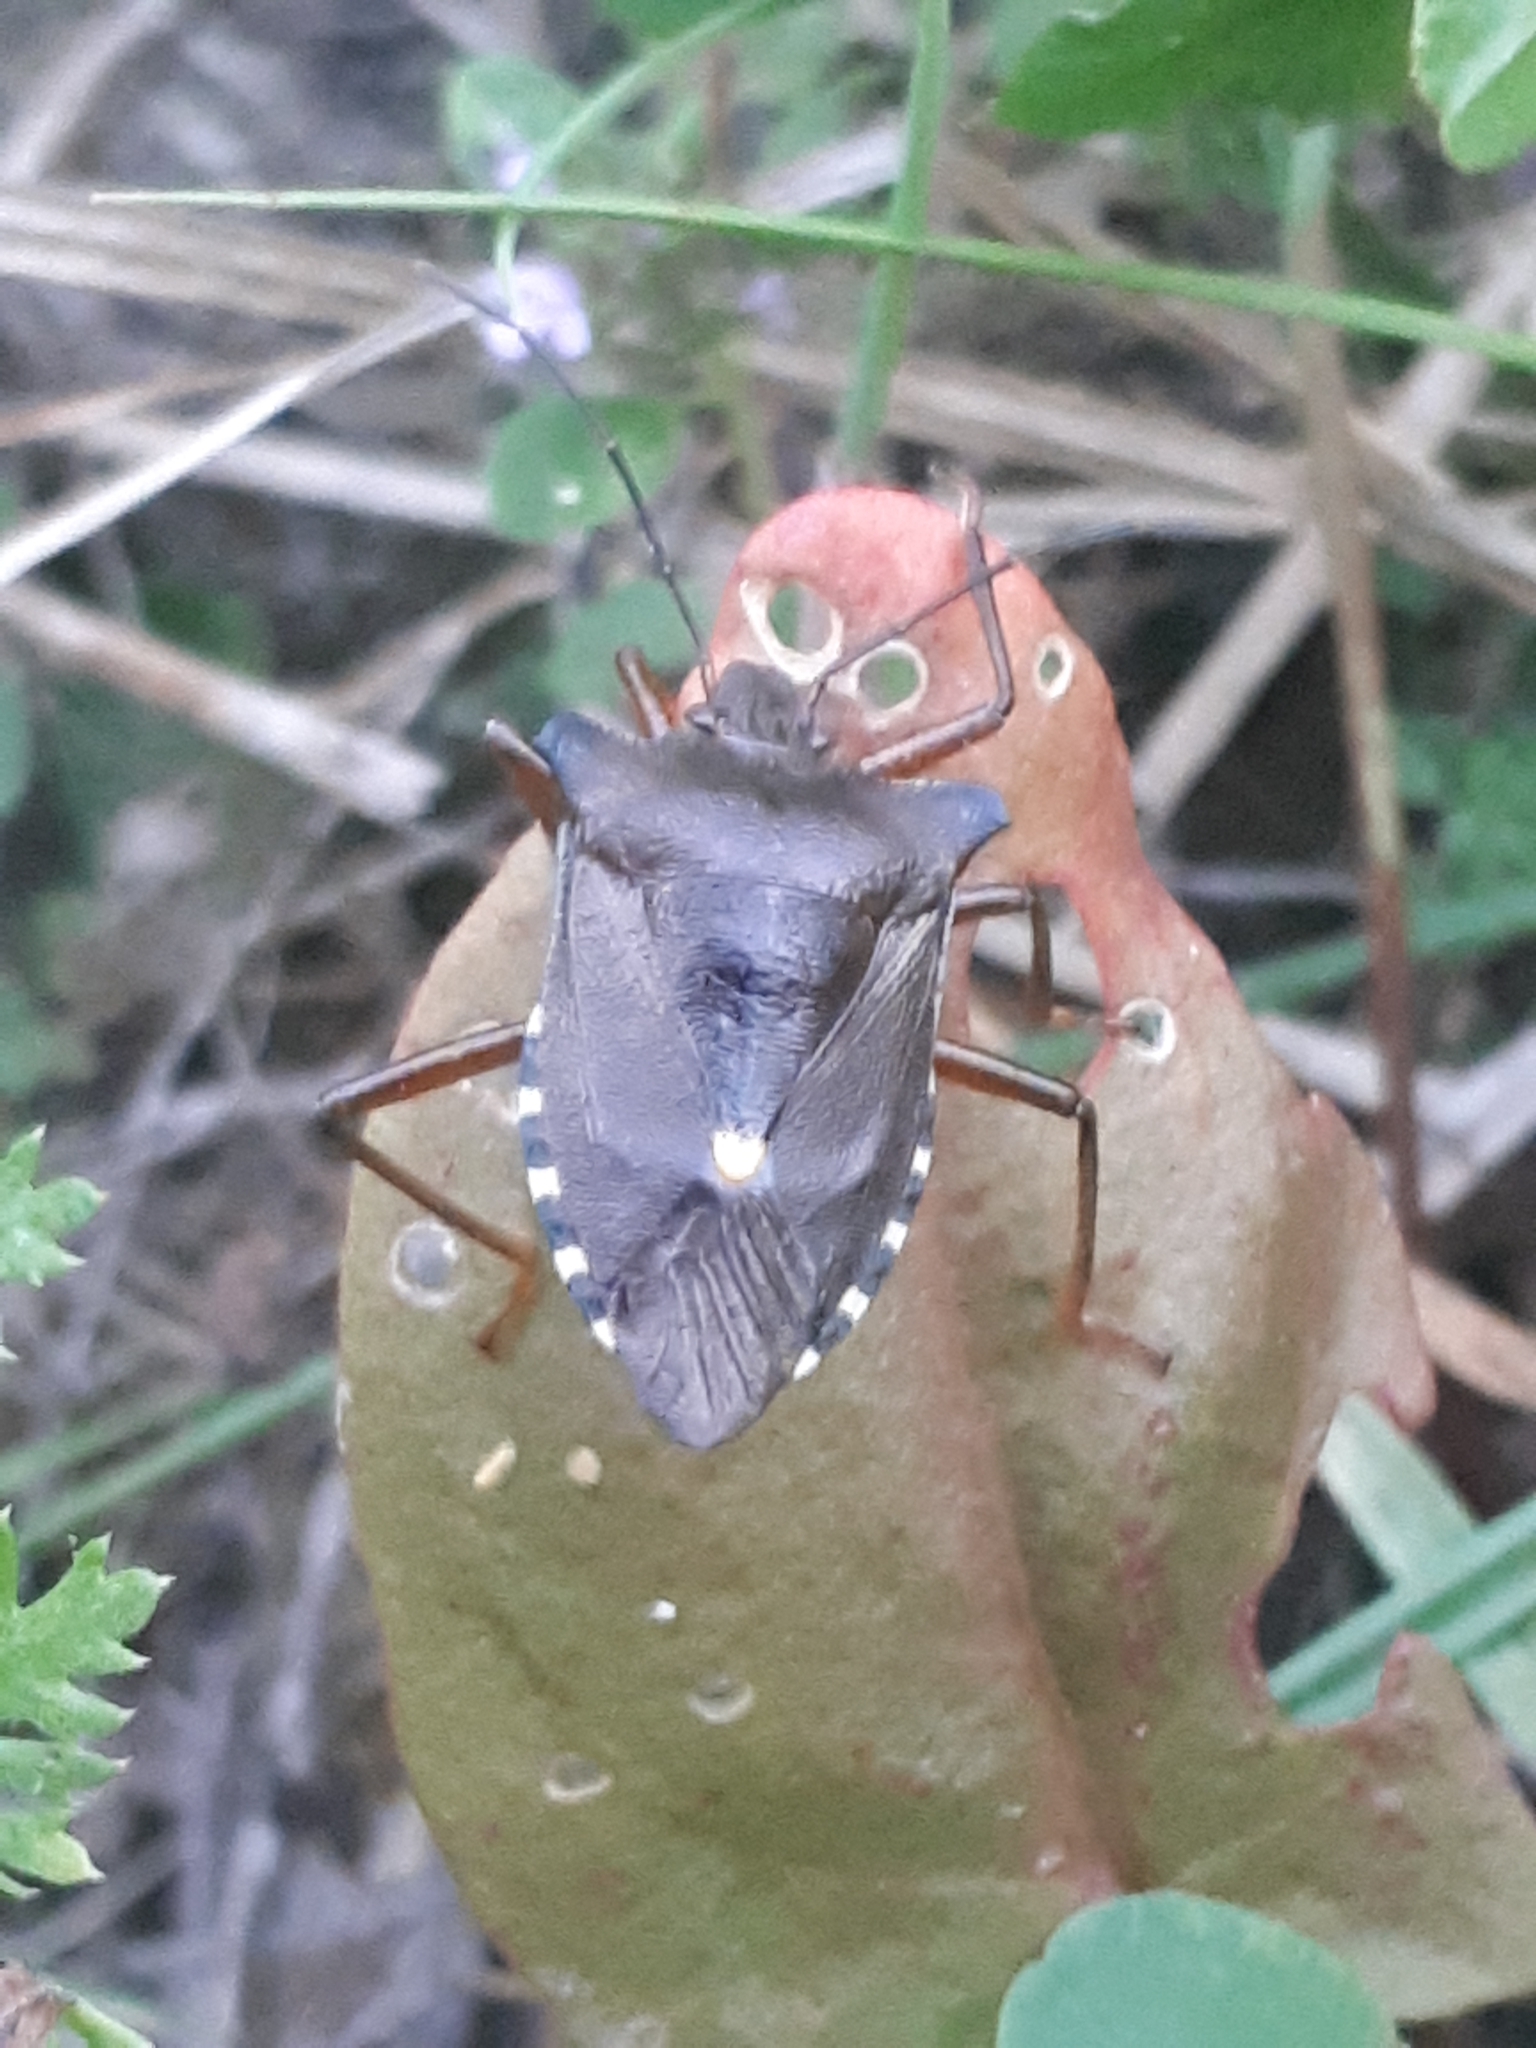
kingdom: Animalia
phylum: Arthropoda
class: Insecta
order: Hemiptera
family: Pentatomidae
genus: Pentatoma
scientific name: Pentatoma rufipes
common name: Forest bug
